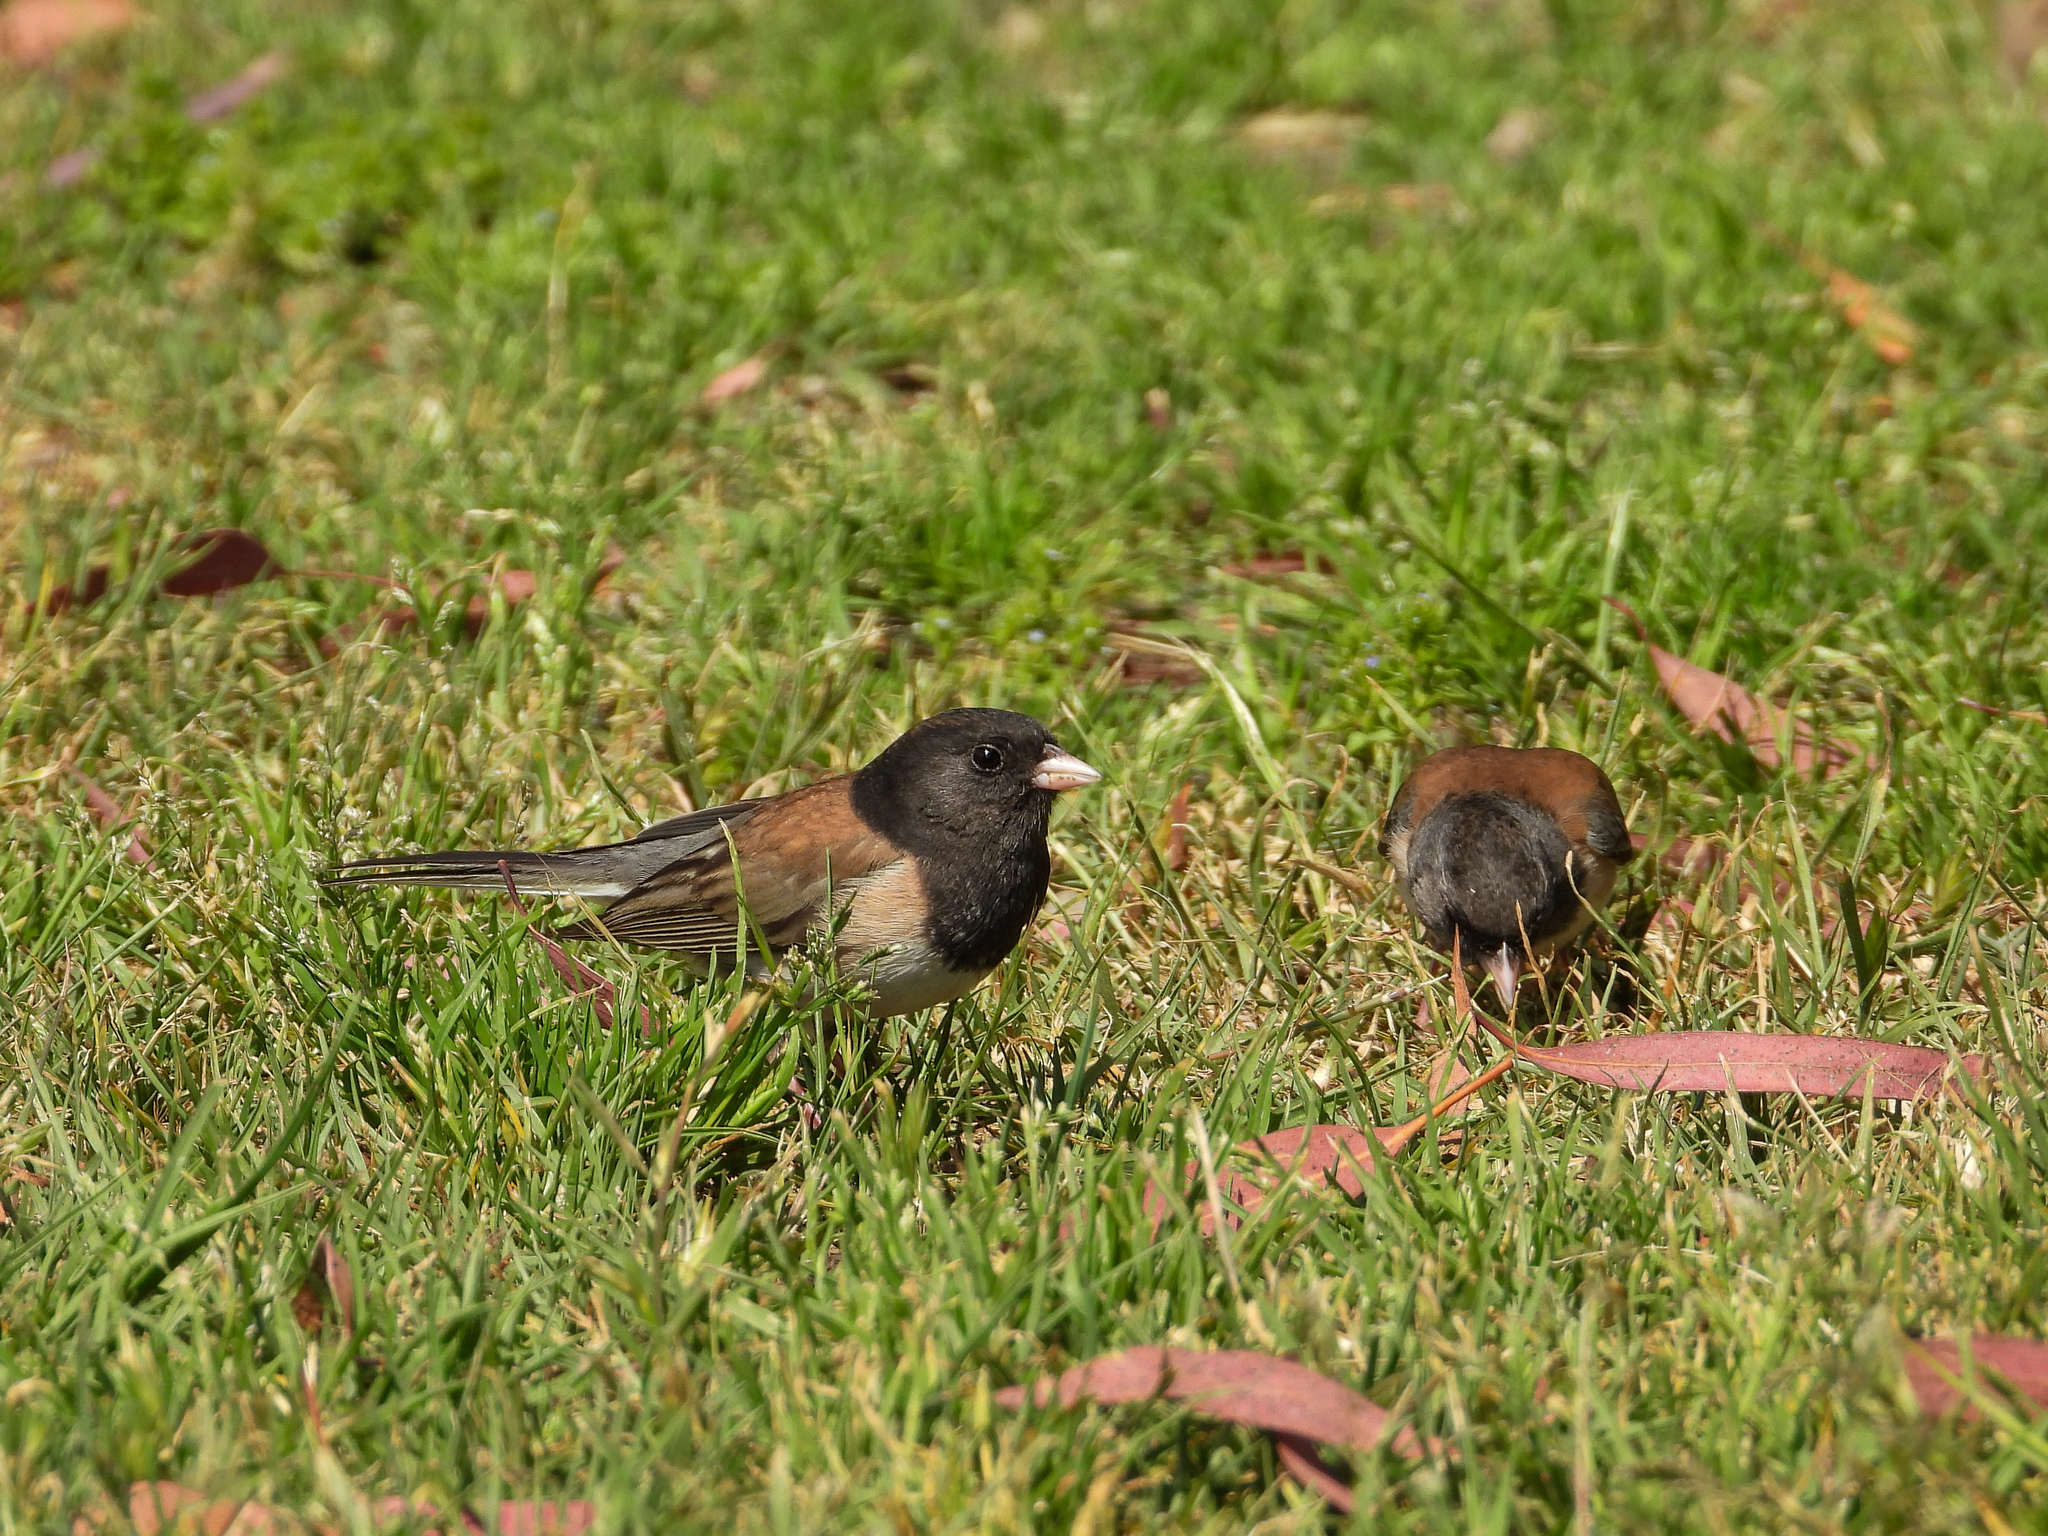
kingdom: Animalia
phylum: Chordata
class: Aves
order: Passeriformes
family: Passerellidae
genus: Junco
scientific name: Junco hyemalis
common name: Dark-eyed junco
